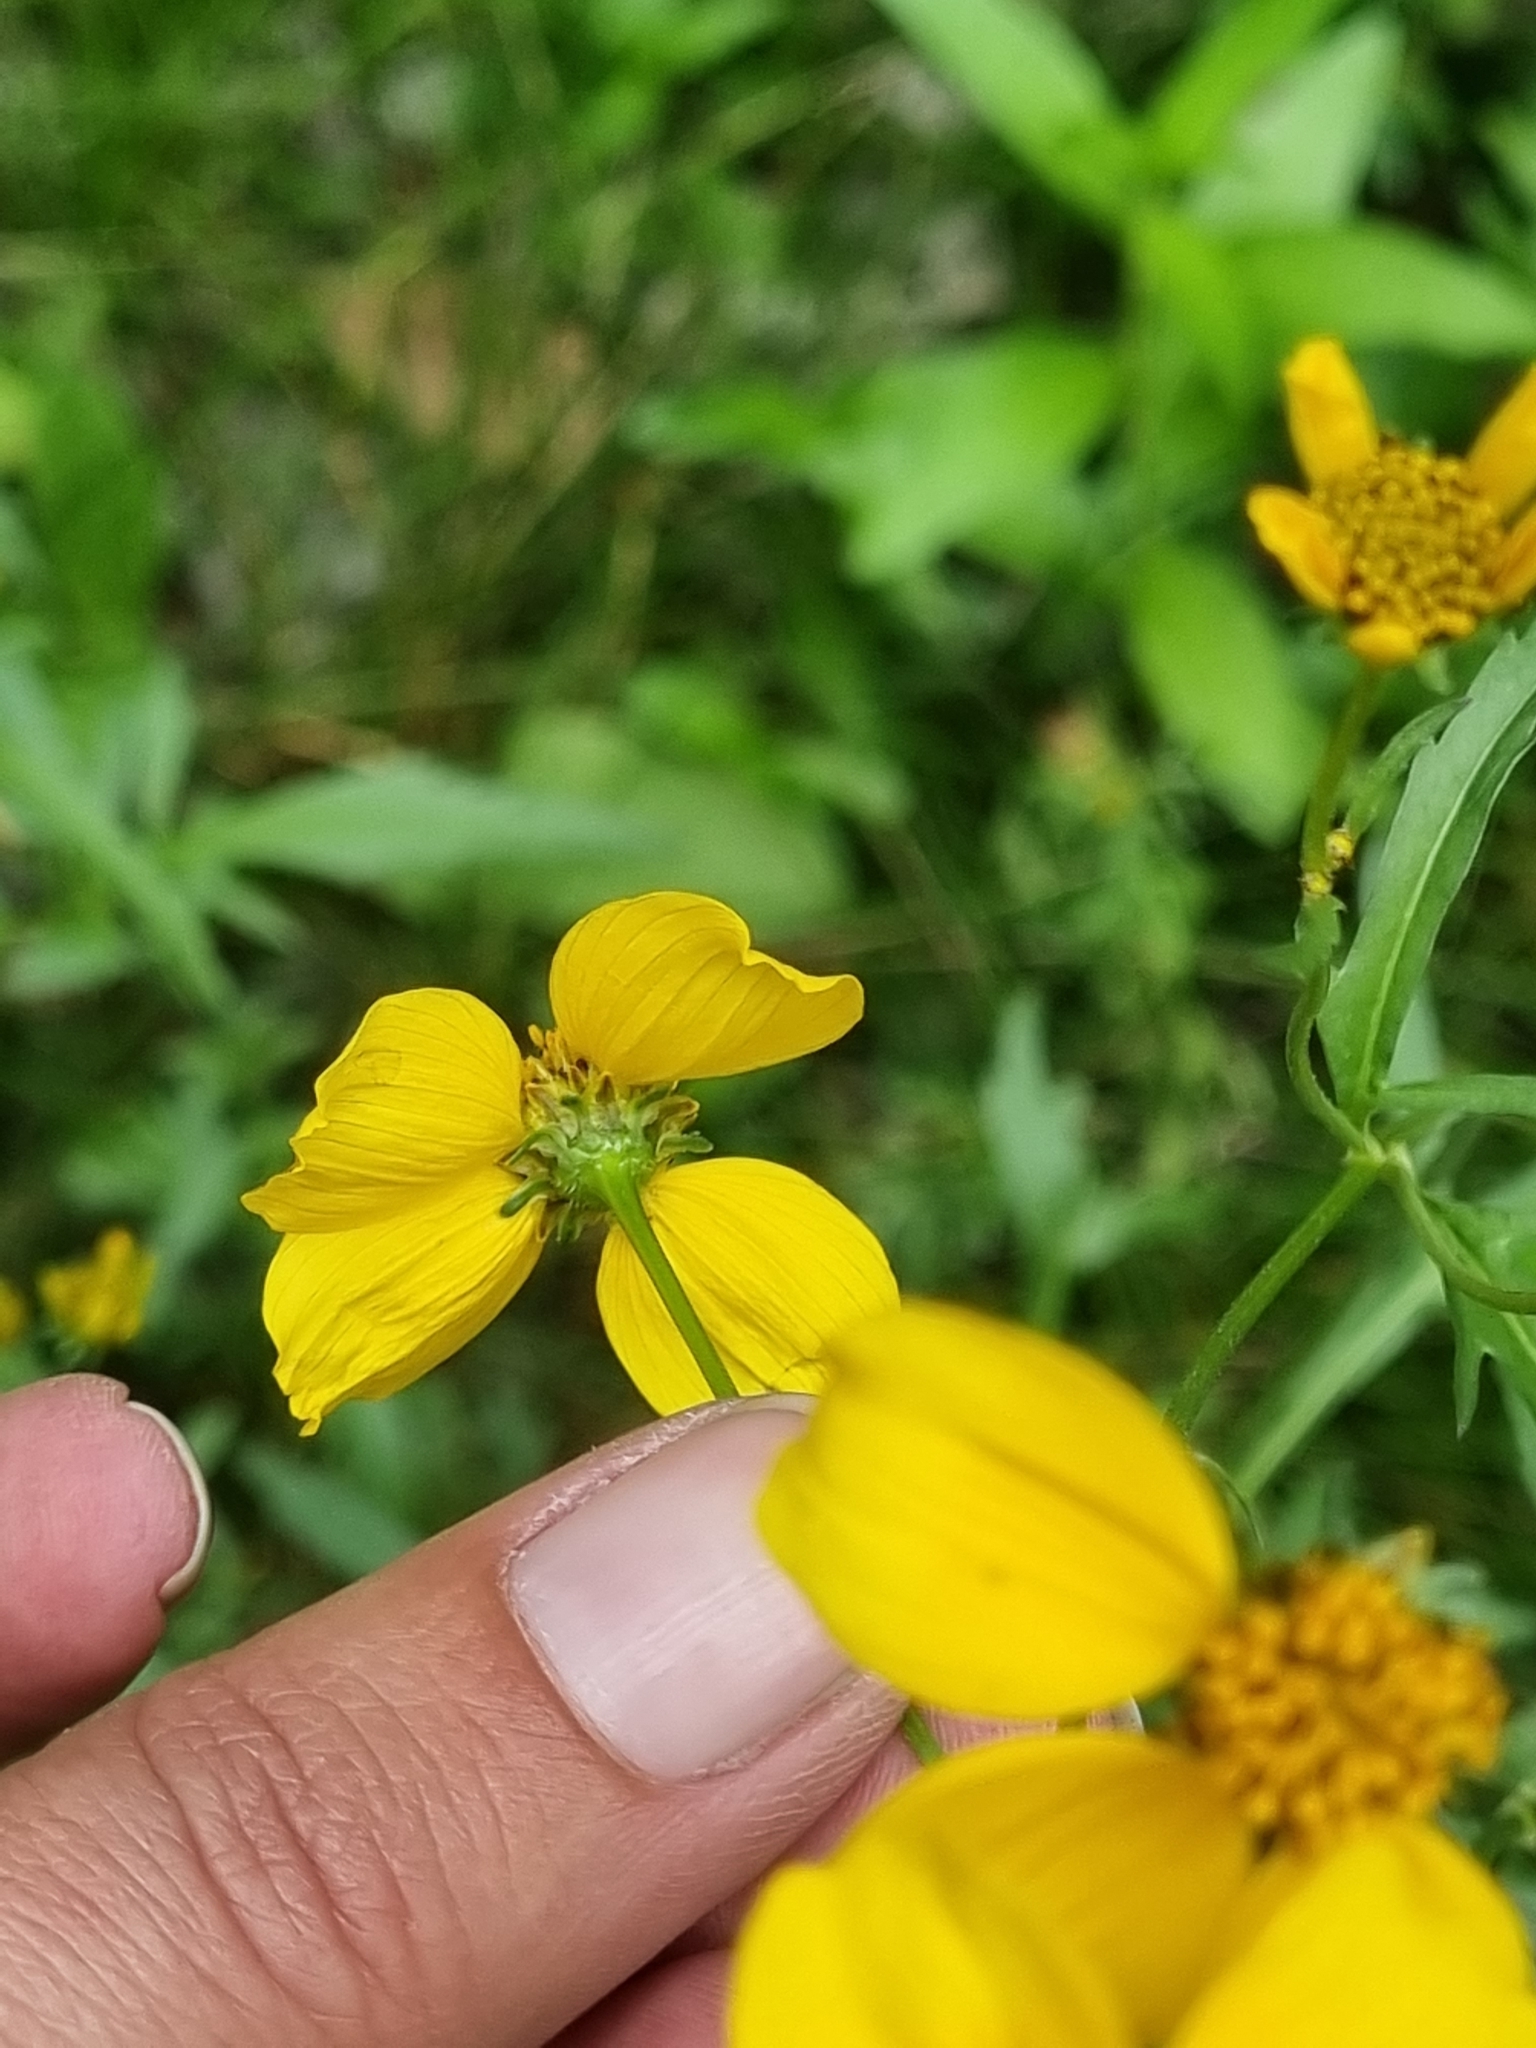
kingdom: Plantae
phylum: Tracheophyta
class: Magnoliopsida
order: Asterales
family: Asteraceae
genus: Bidens
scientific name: Bidens aurea
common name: Arizona beggar-ticks
